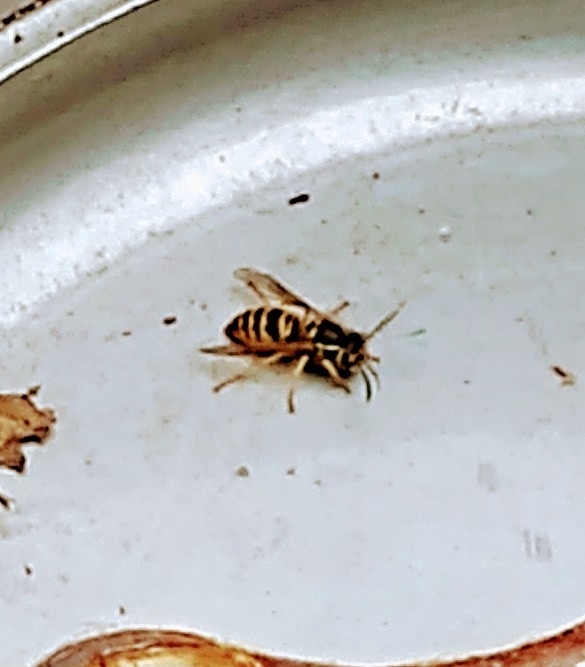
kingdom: Animalia
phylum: Arthropoda
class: Insecta
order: Hymenoptera
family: Vespidae
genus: Vespula
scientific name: Vespula maculifrons
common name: Eastern yellowjacket
